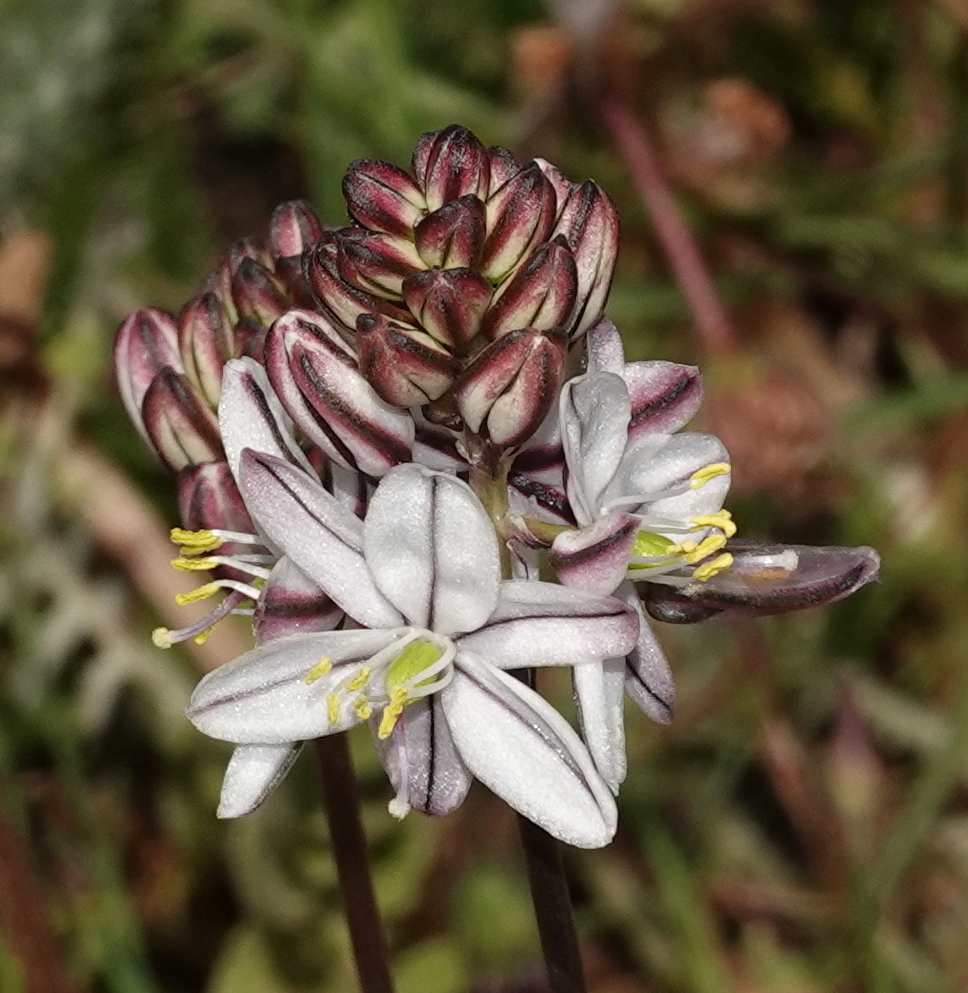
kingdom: Plantae
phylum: Tracheophyta
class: Liliopsida
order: Asparagales
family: Asparagaceae
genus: Drimia
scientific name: Drimia exuviata
